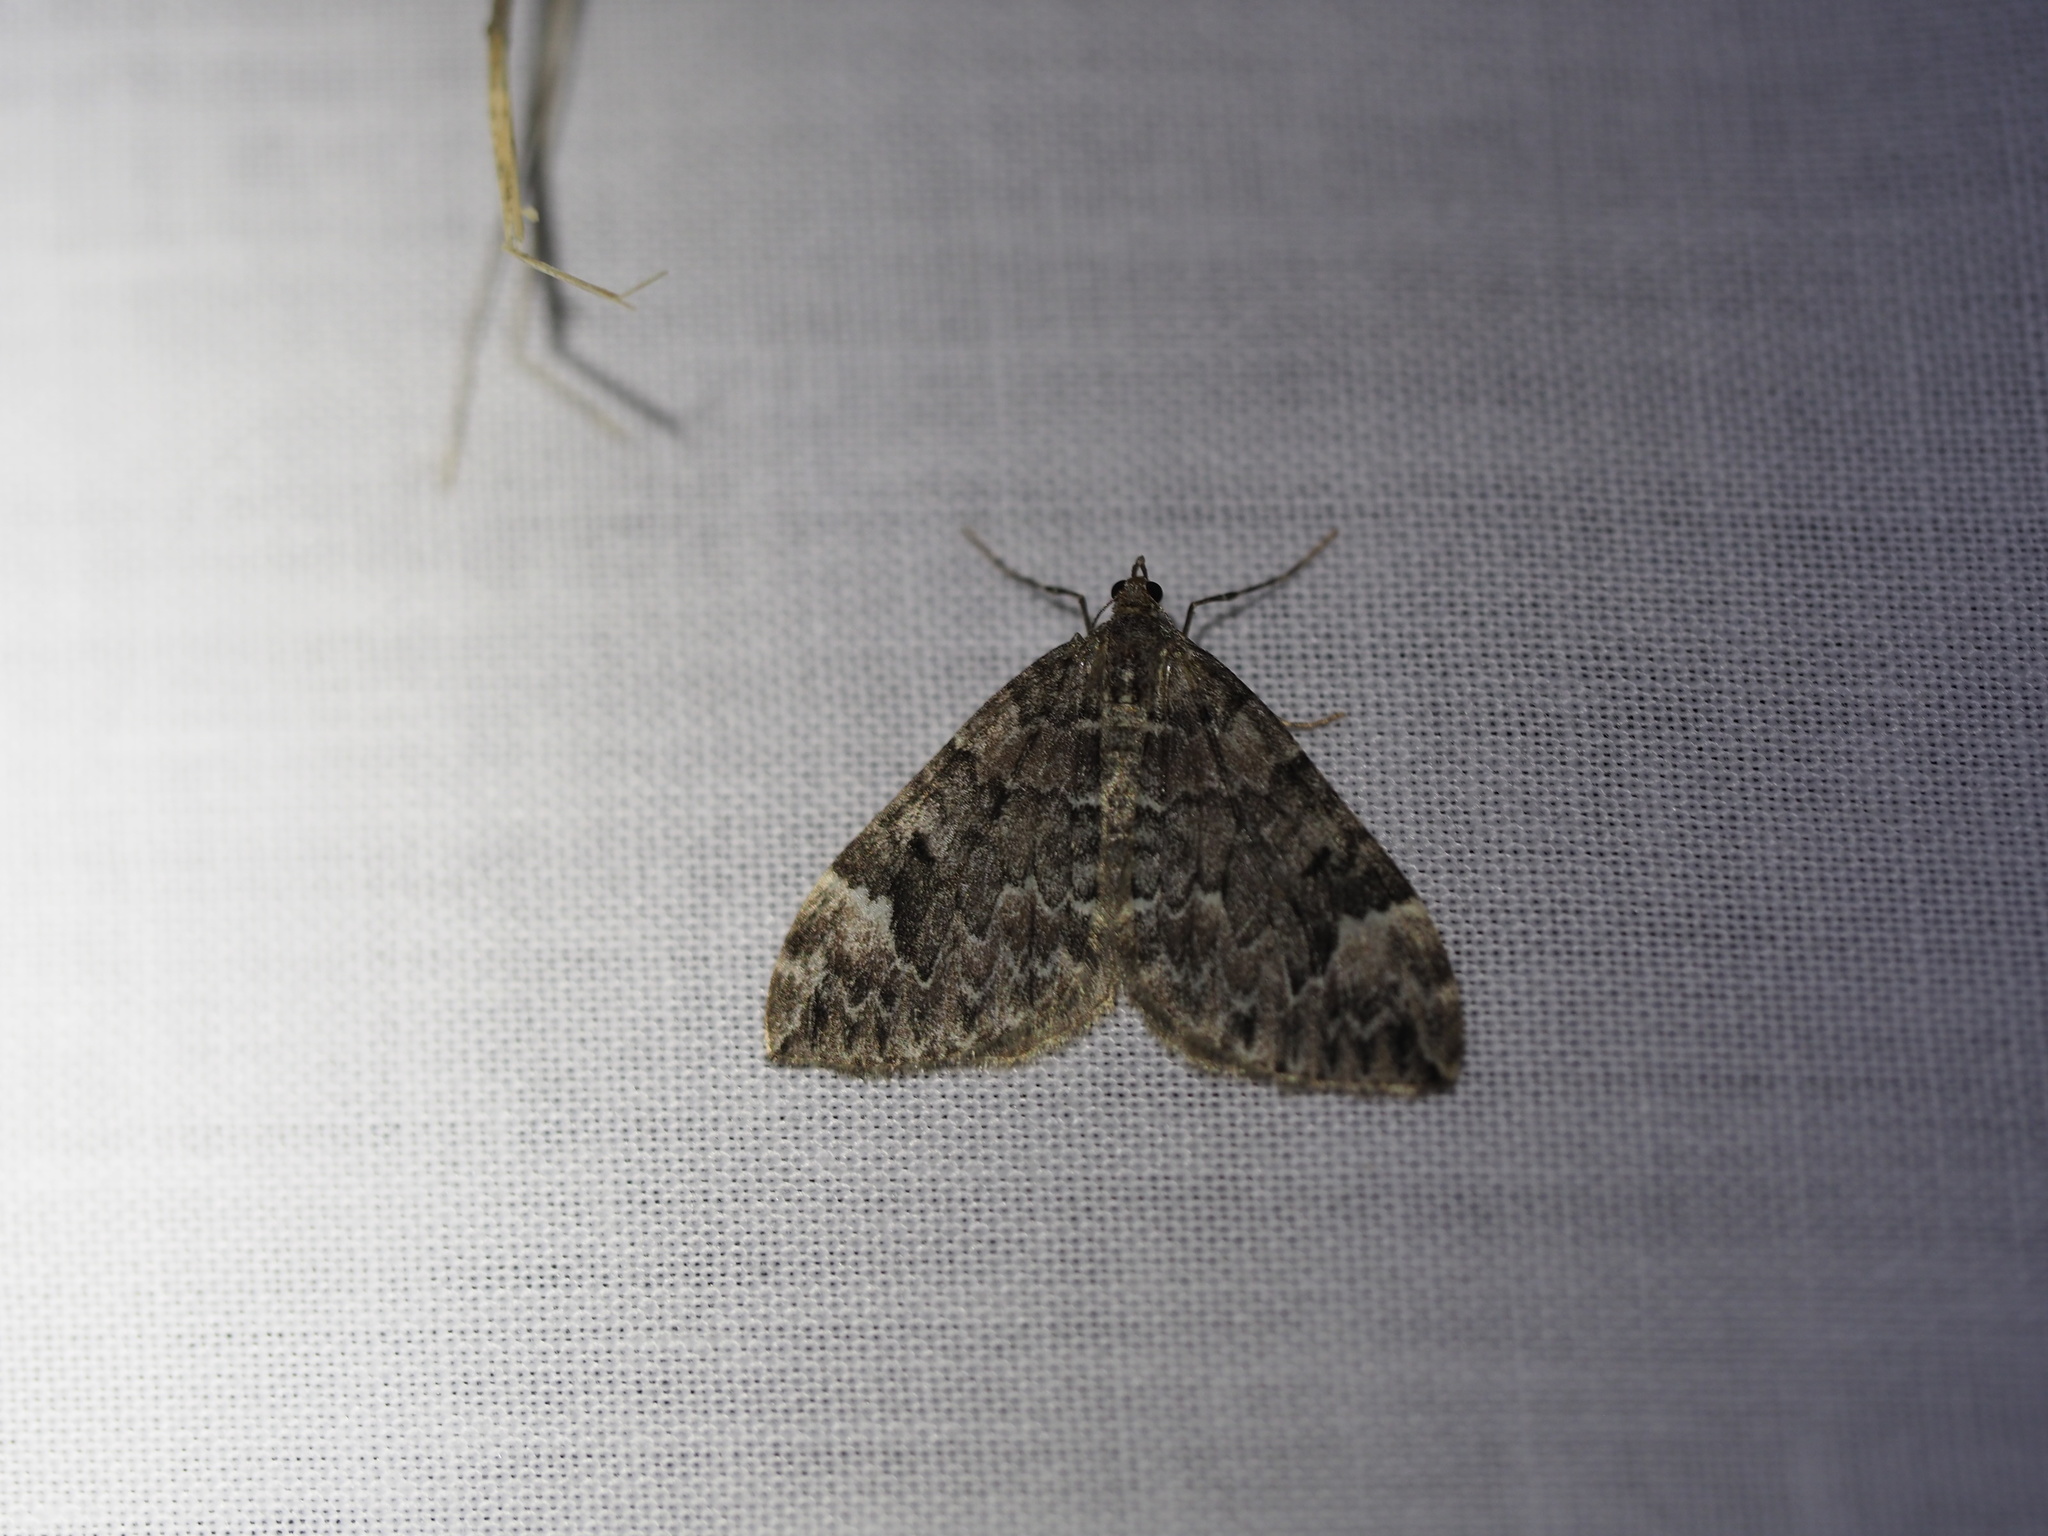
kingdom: Animalia
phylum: Arthropoda
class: Insecta
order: Lepidoptera
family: Geometridae
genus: Dysstroma
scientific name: Dysstroma citrata
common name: Dark marbled carpet
